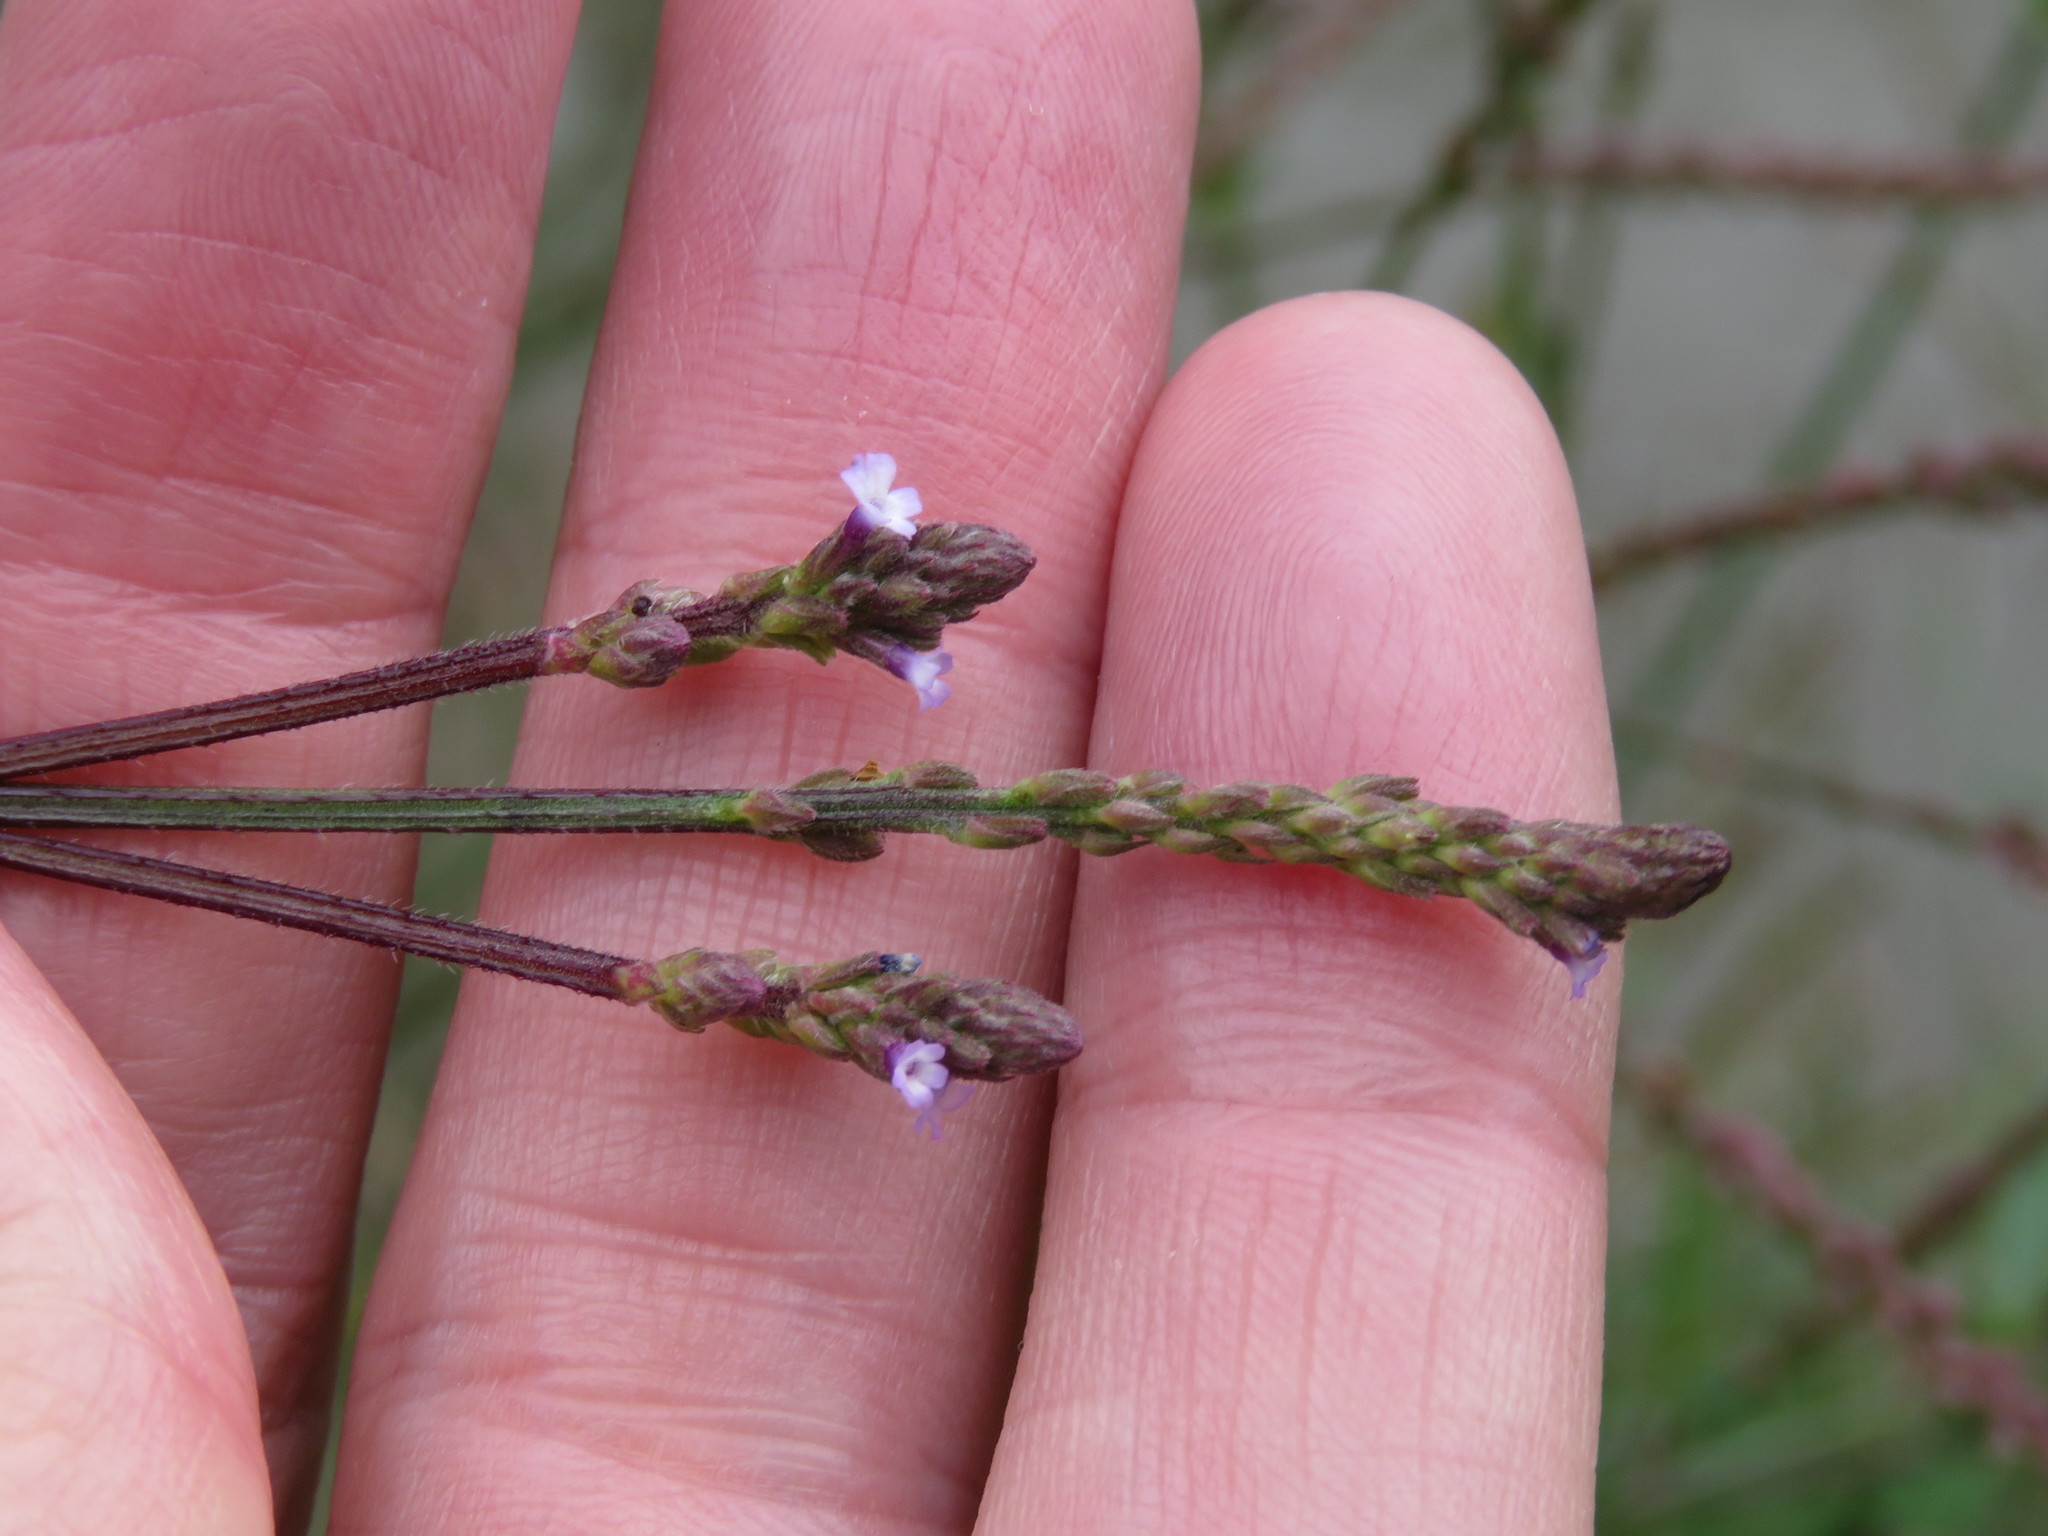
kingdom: Plantae
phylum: Tracheophyta
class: Magnoliopsida
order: Lamiales
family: Verbenaceae
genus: Verbena
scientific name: Verbena litoralis
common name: Seashore vervain
